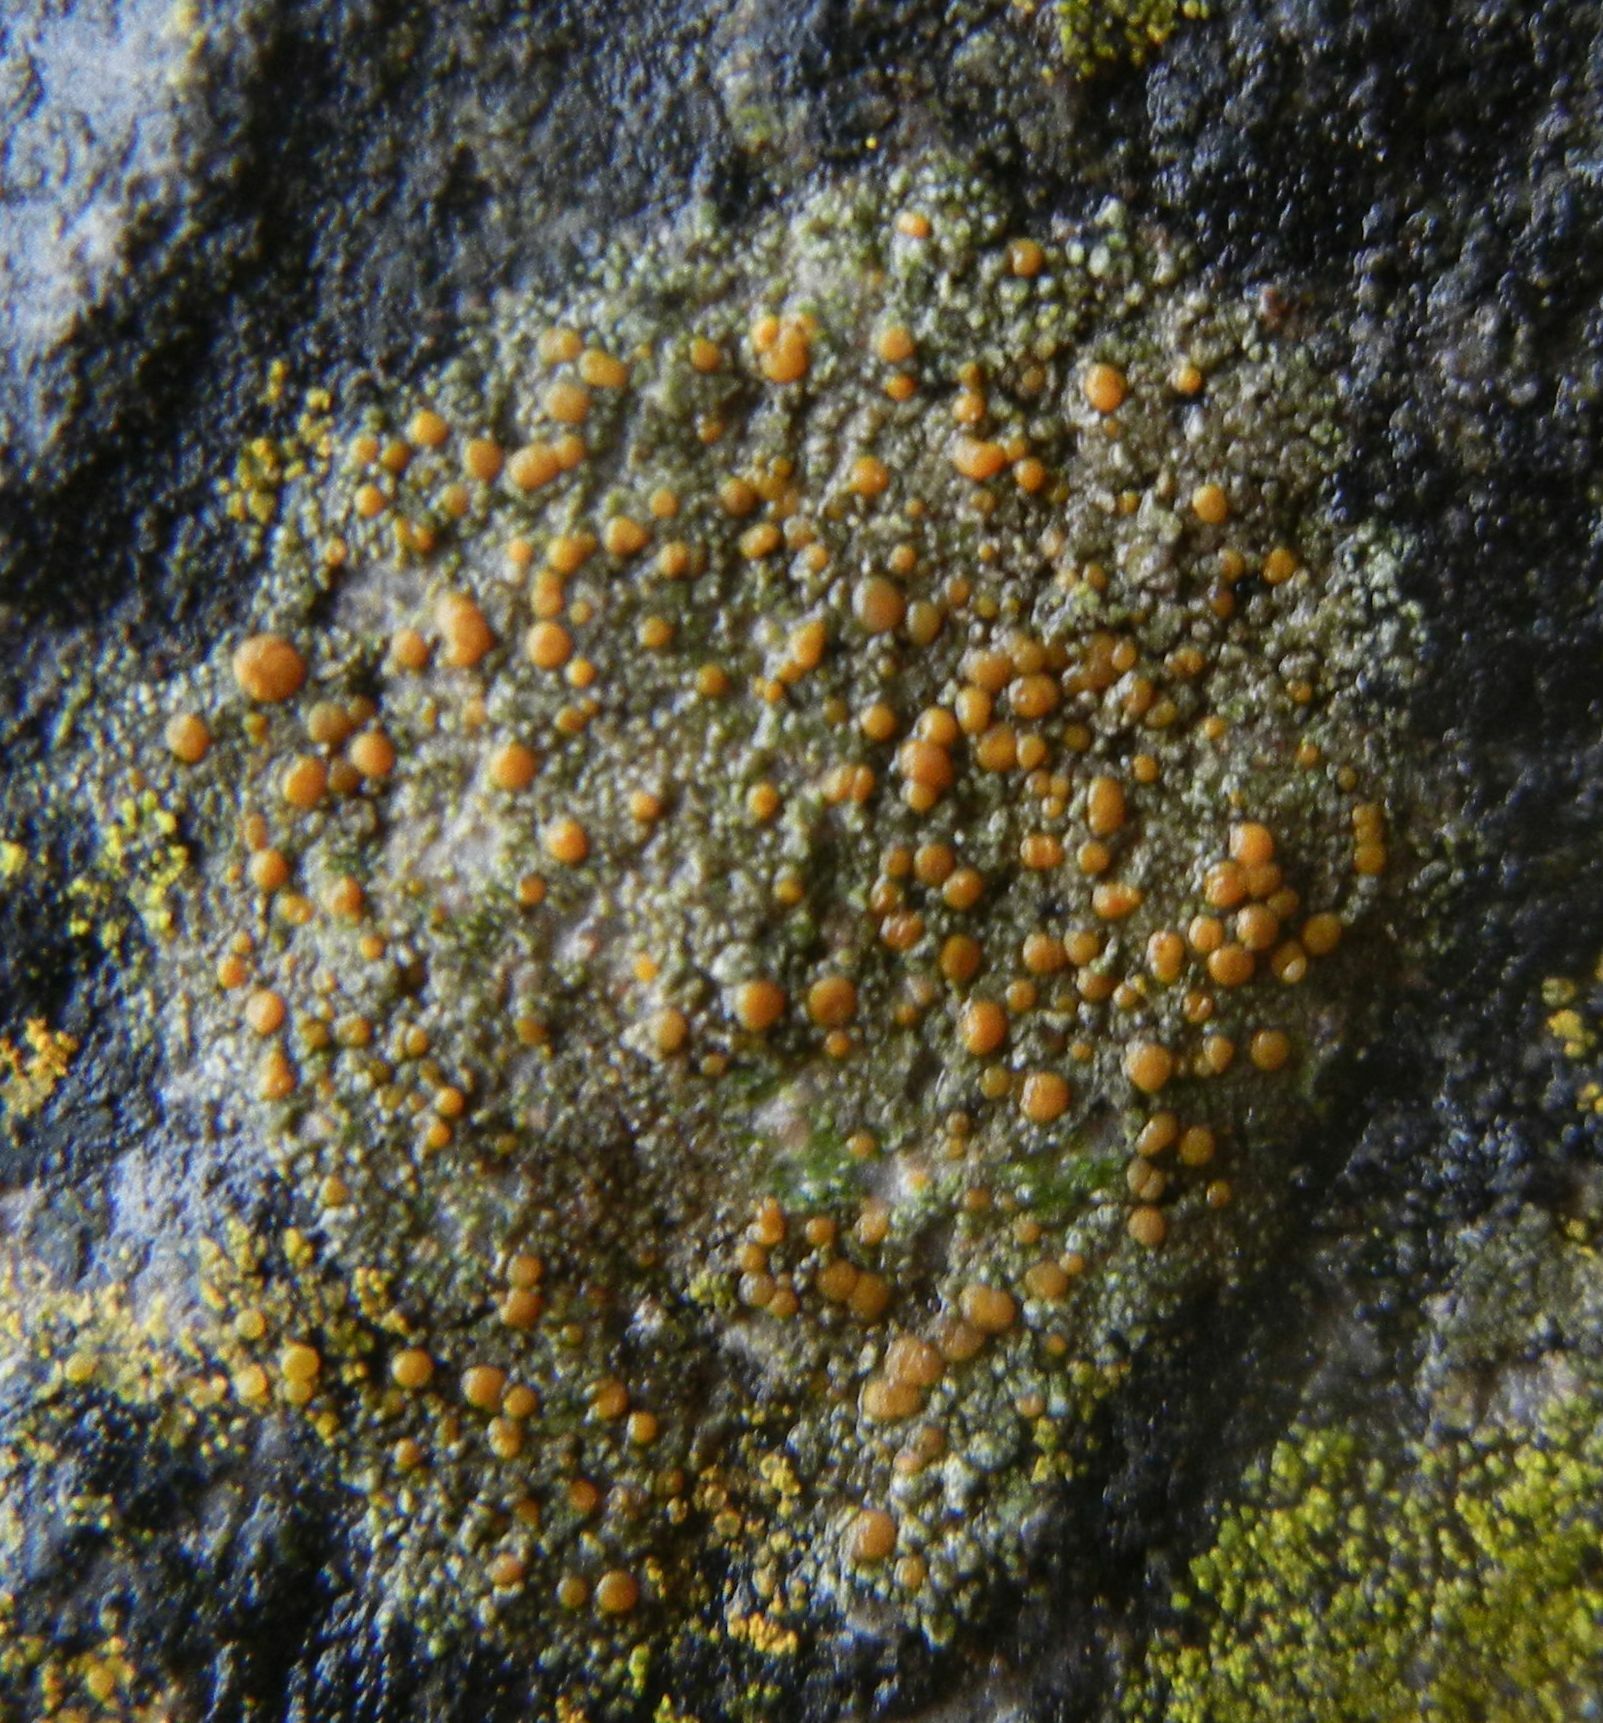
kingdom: Fungi
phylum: Ascomycota
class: Lecanoromycetes
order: Lecanorales
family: Psoraceae
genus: Protoblastenia
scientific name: Protoblastenia rupestris
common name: Chewing gum lichen
